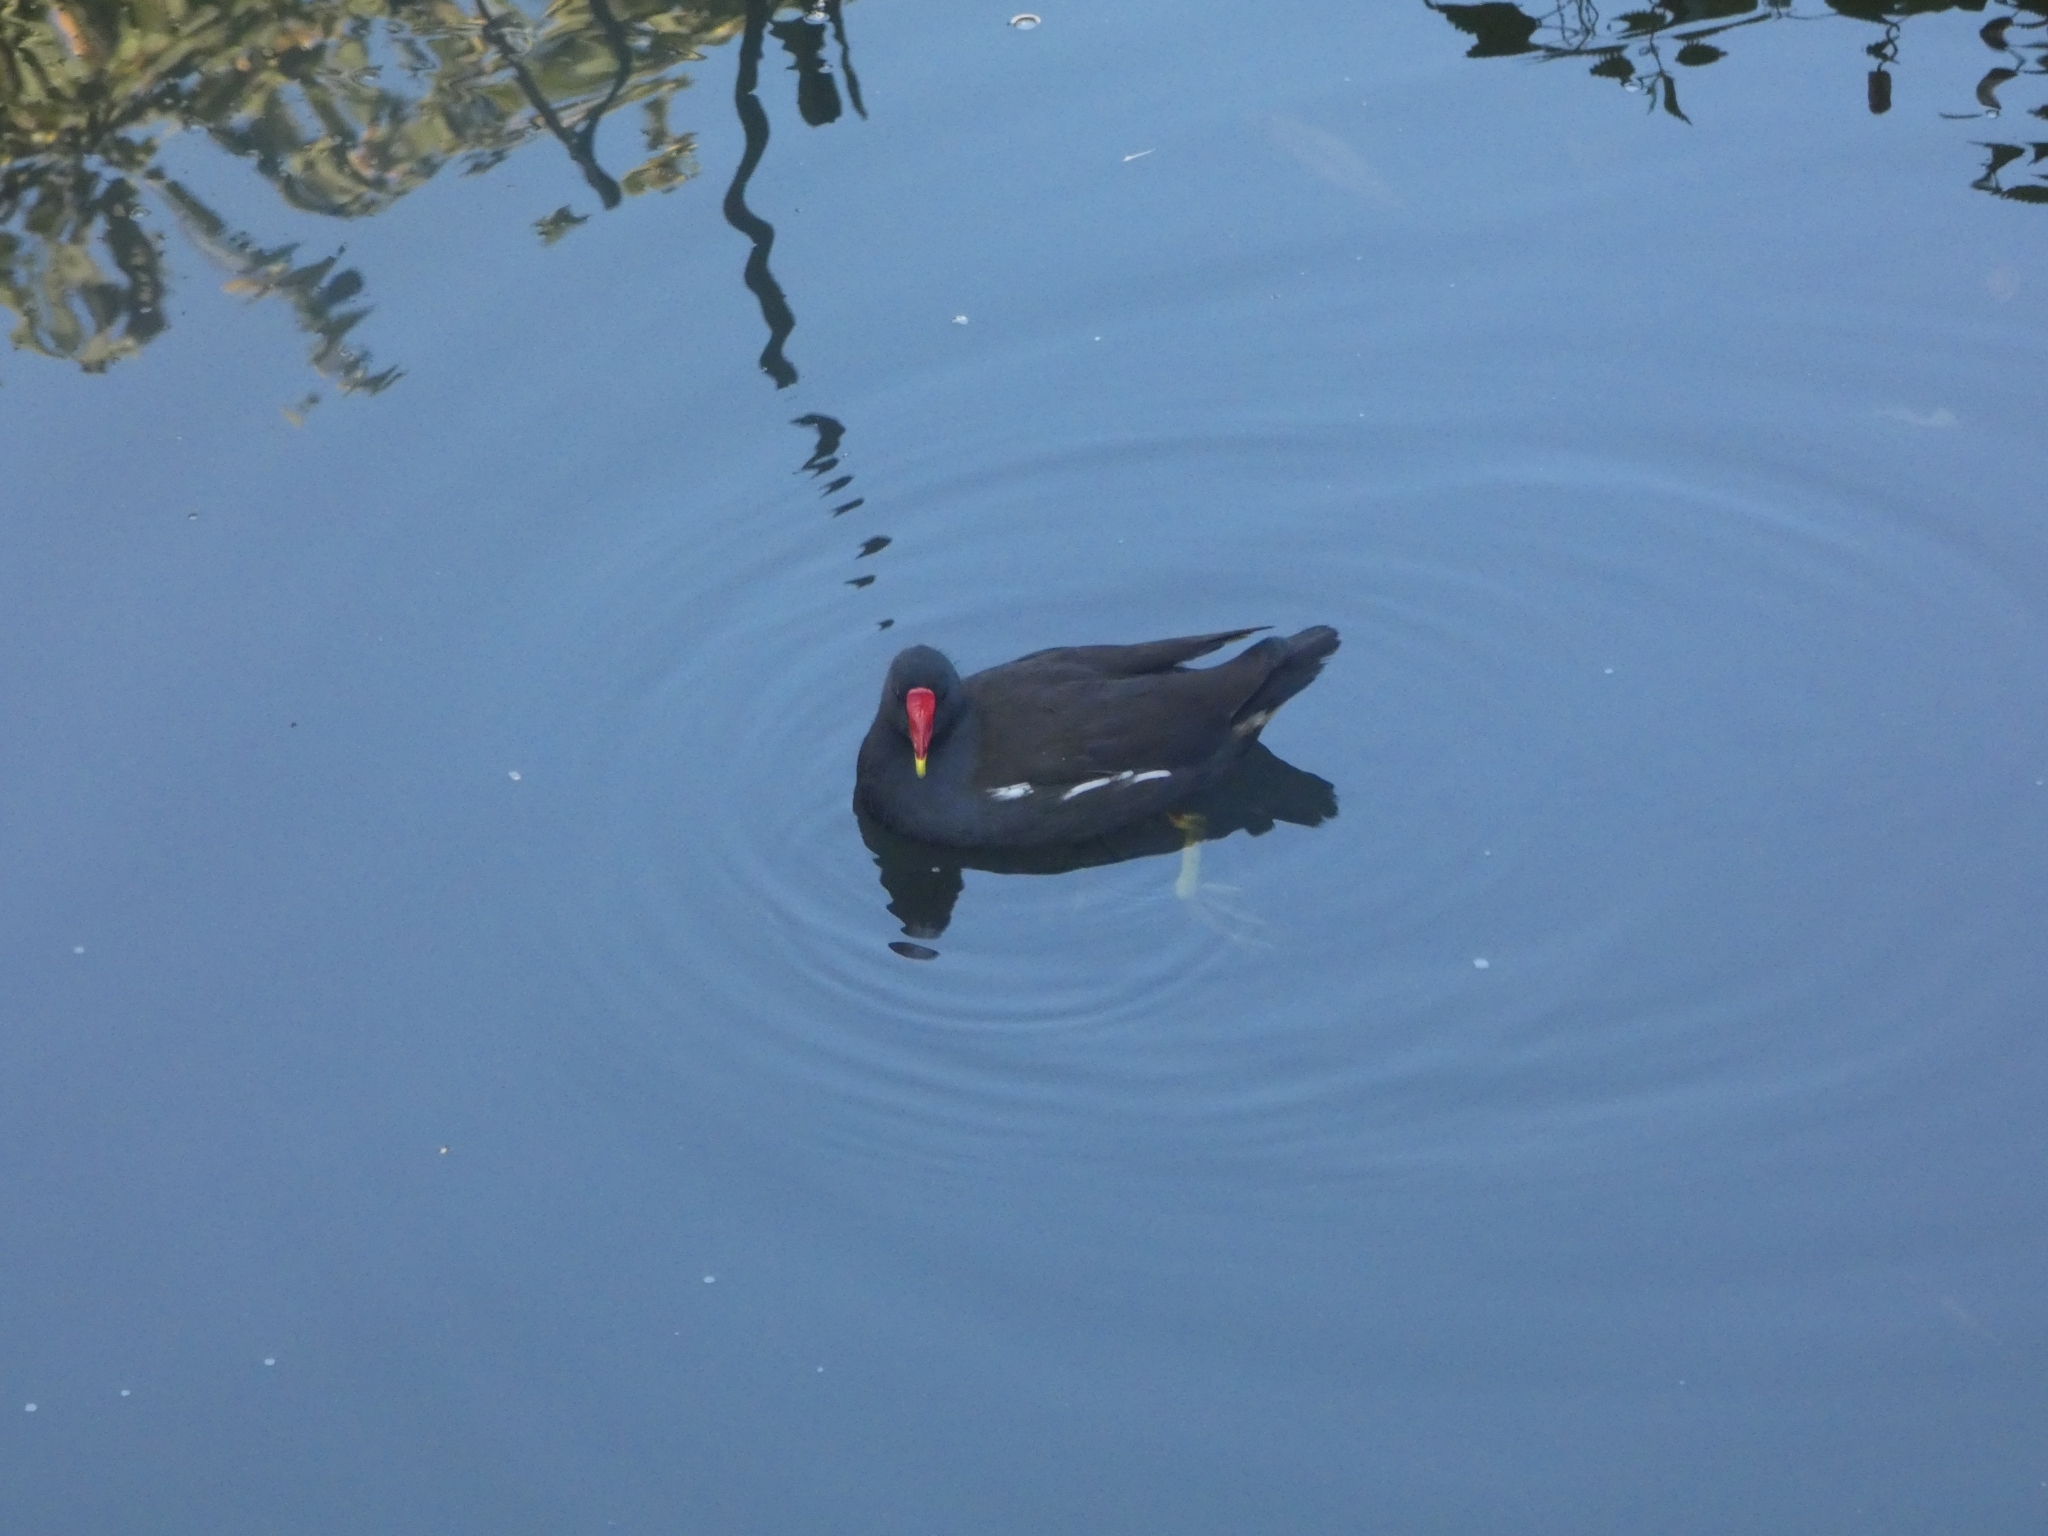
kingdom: Animalia
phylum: Chordata
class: Aves
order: Gruiformes
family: Rallidae
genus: Gallinula
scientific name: Gallinula chloropus
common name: Common moorhen
